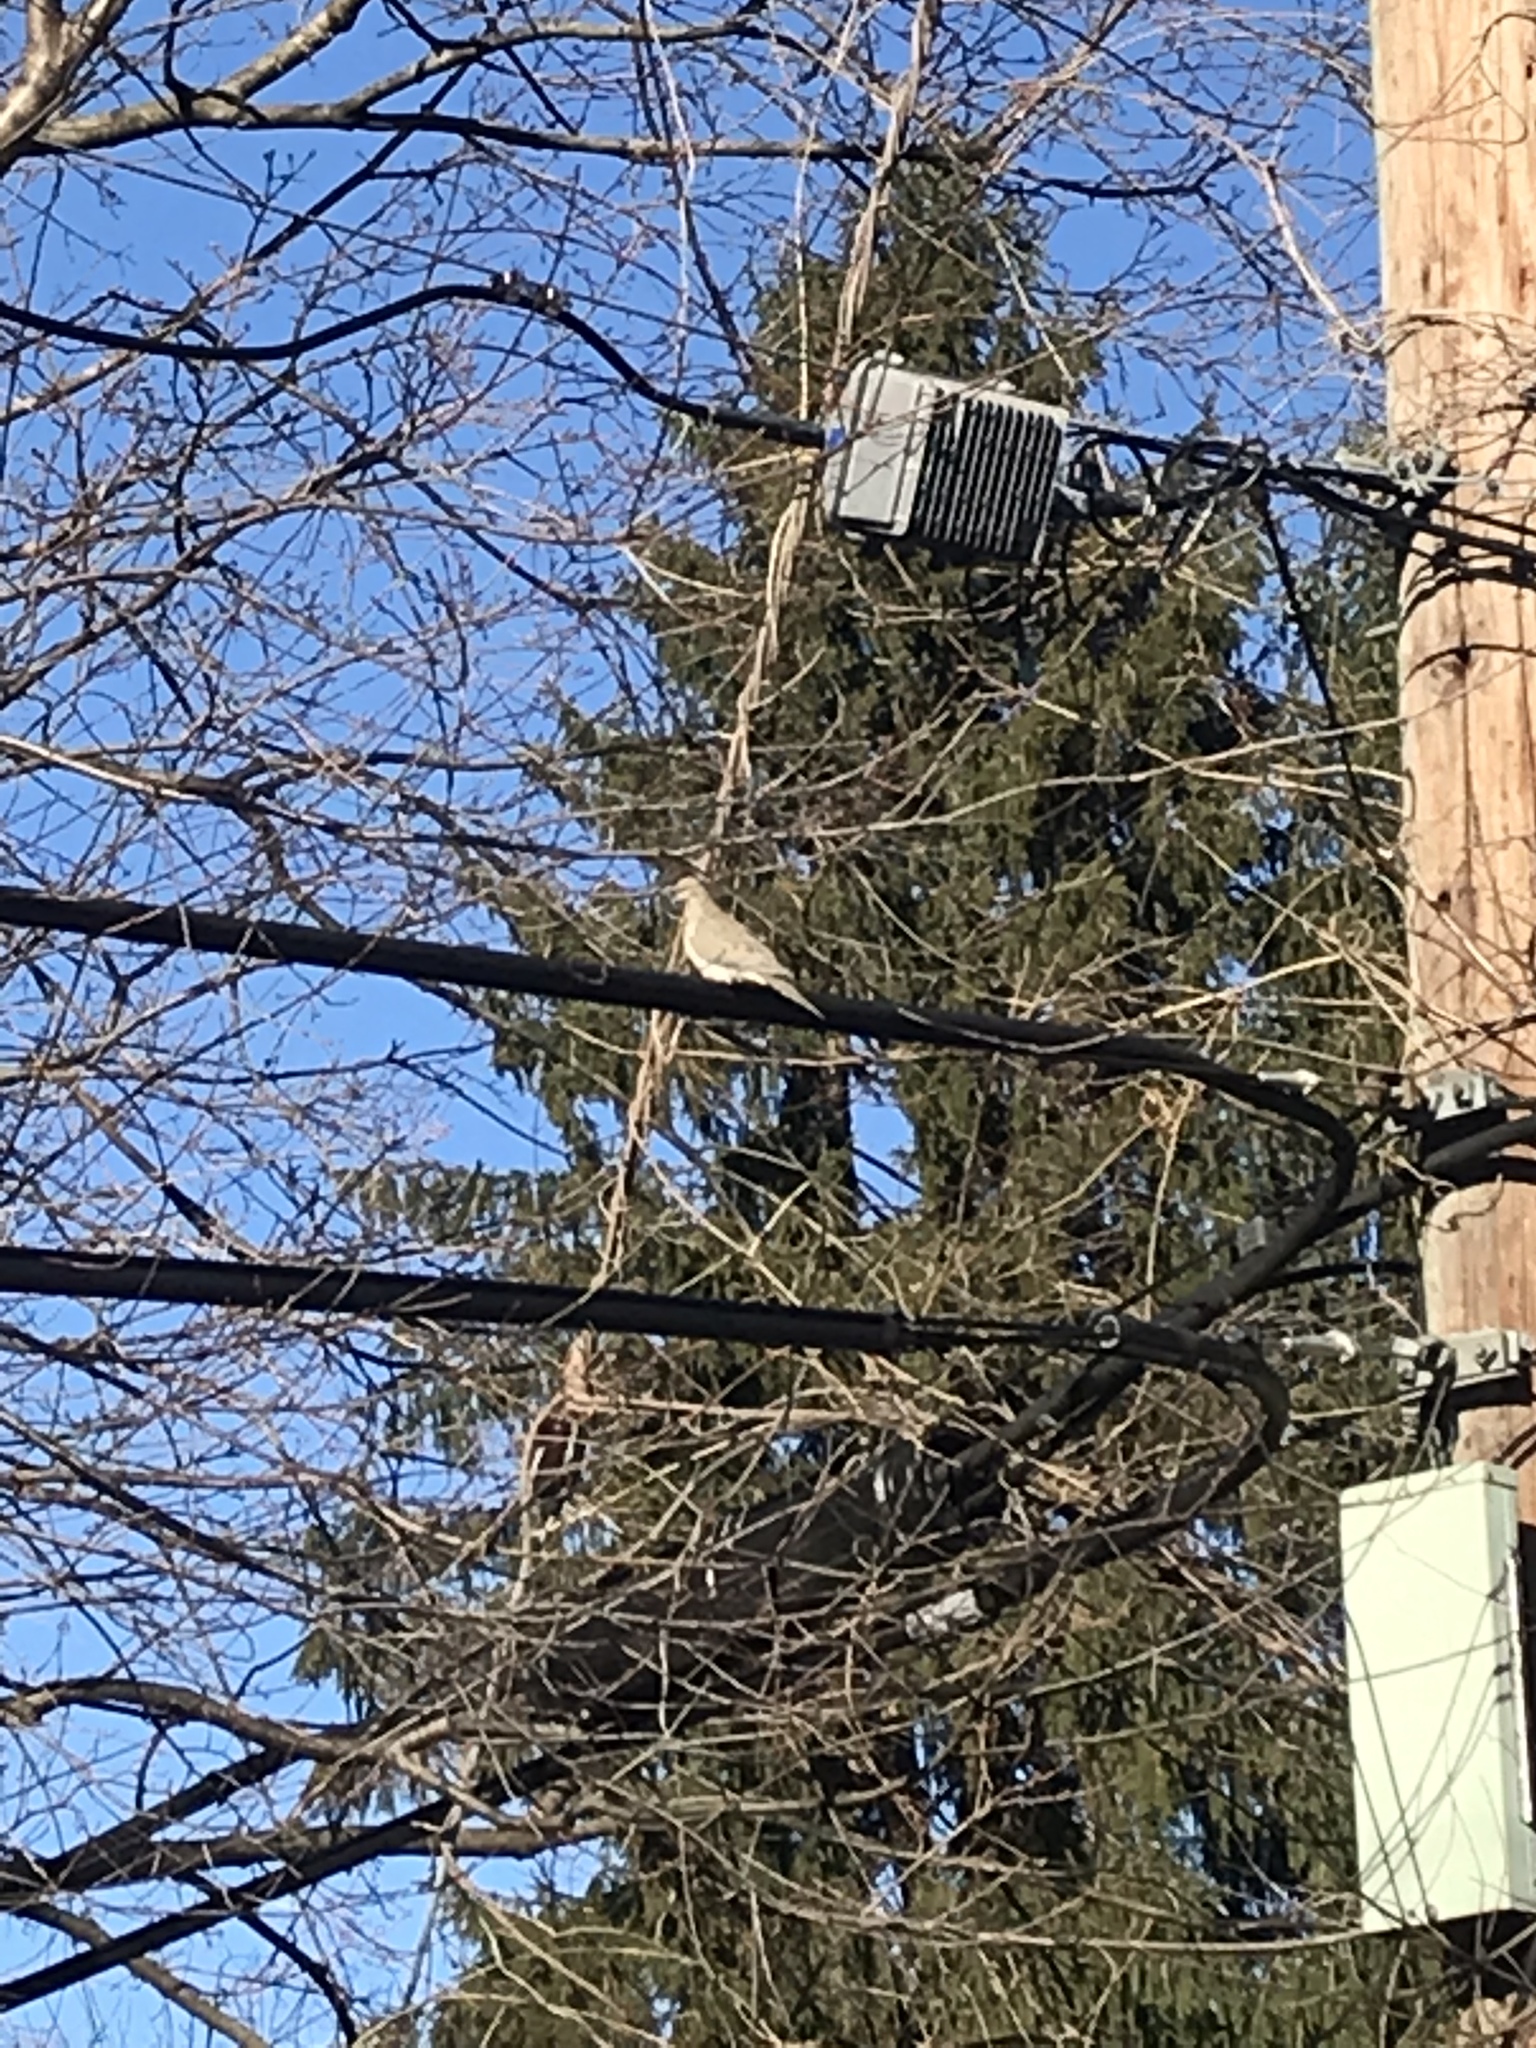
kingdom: Animalia
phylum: Chordata
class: Aves
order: Columbiformes
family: Columbidae
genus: Zenaida
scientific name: Zenaida macroura
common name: Mourning dove
